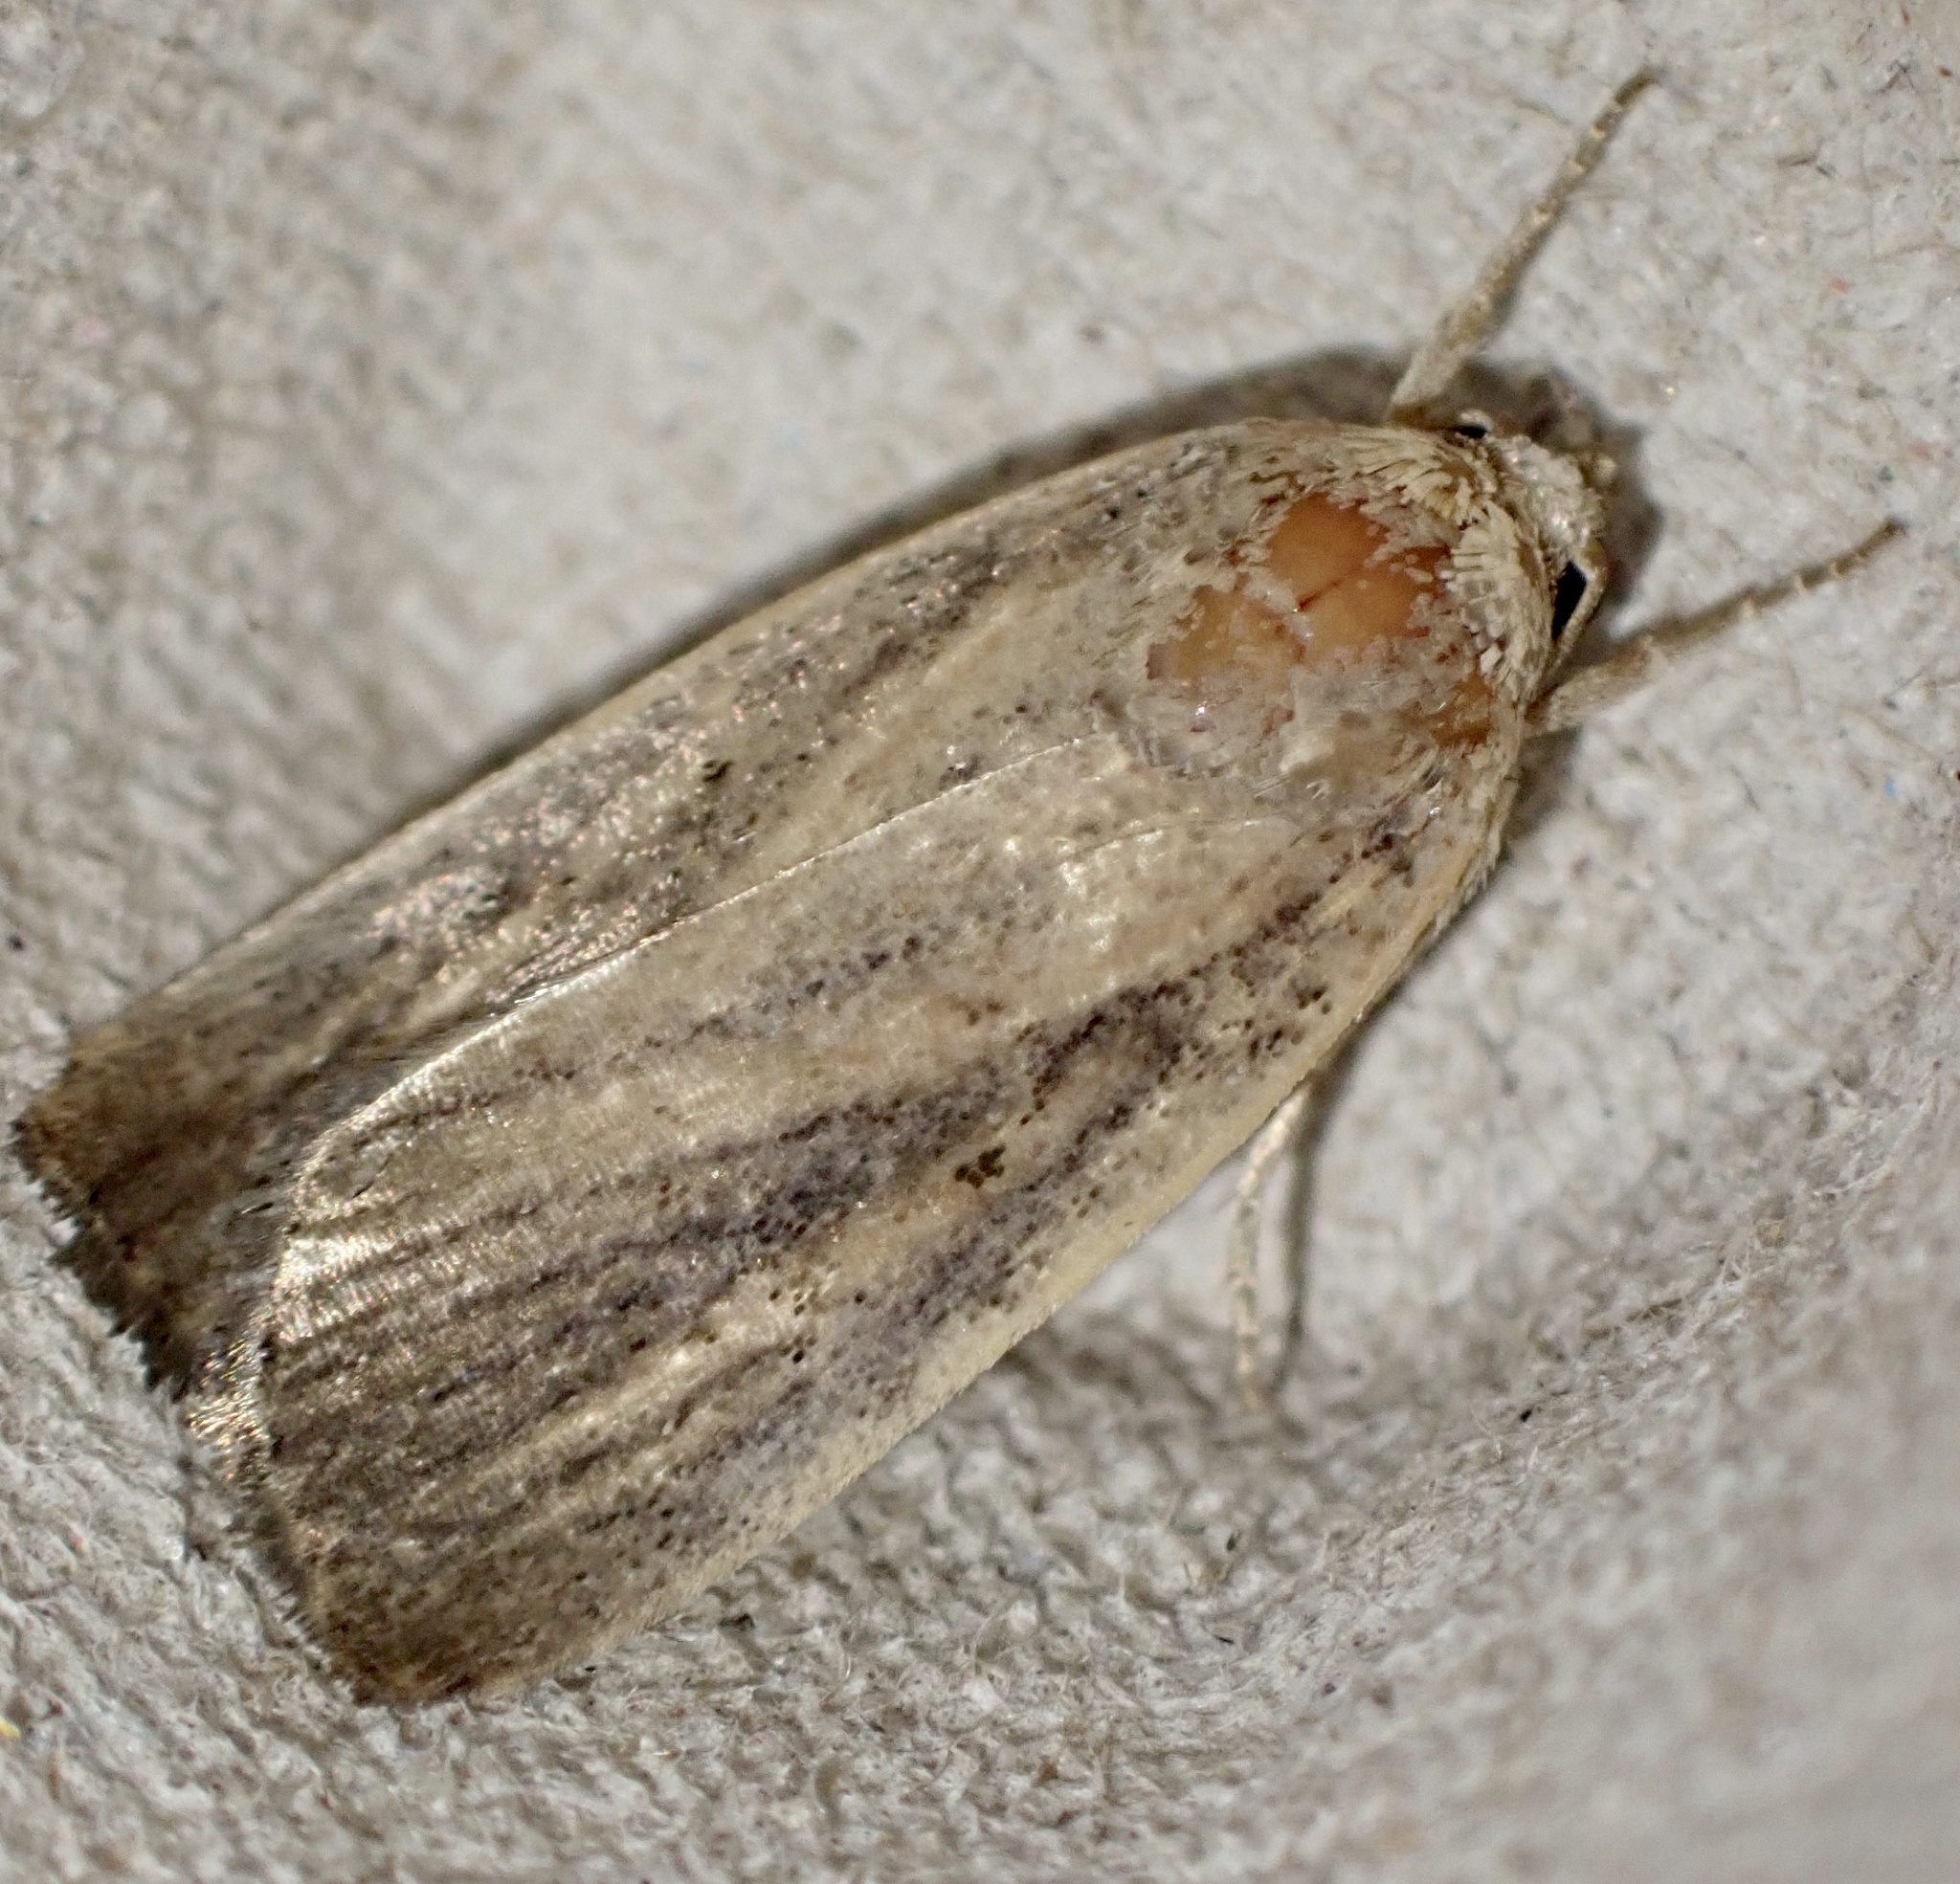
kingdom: Animalia
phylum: Arthropoda
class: Insecta
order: Lepidoptera
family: Noctuidae
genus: Athetis
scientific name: Athetis hospes
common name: Porter's rustic
